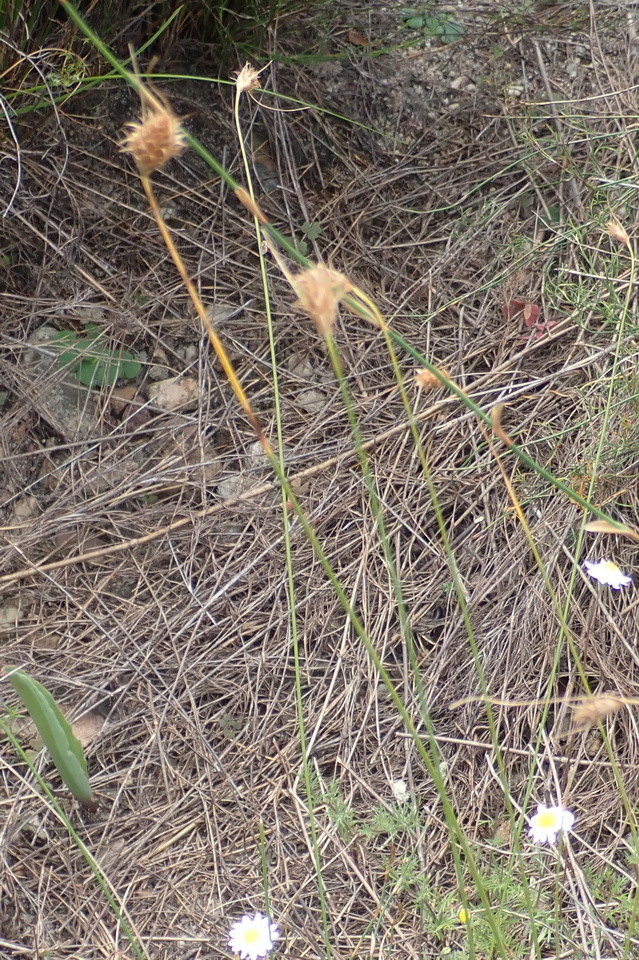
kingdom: Plantae
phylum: Tracheophyta
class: Liliopsida
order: Poales
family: Cyperaceae
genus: Ficinia
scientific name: Ficinia nigrescens
